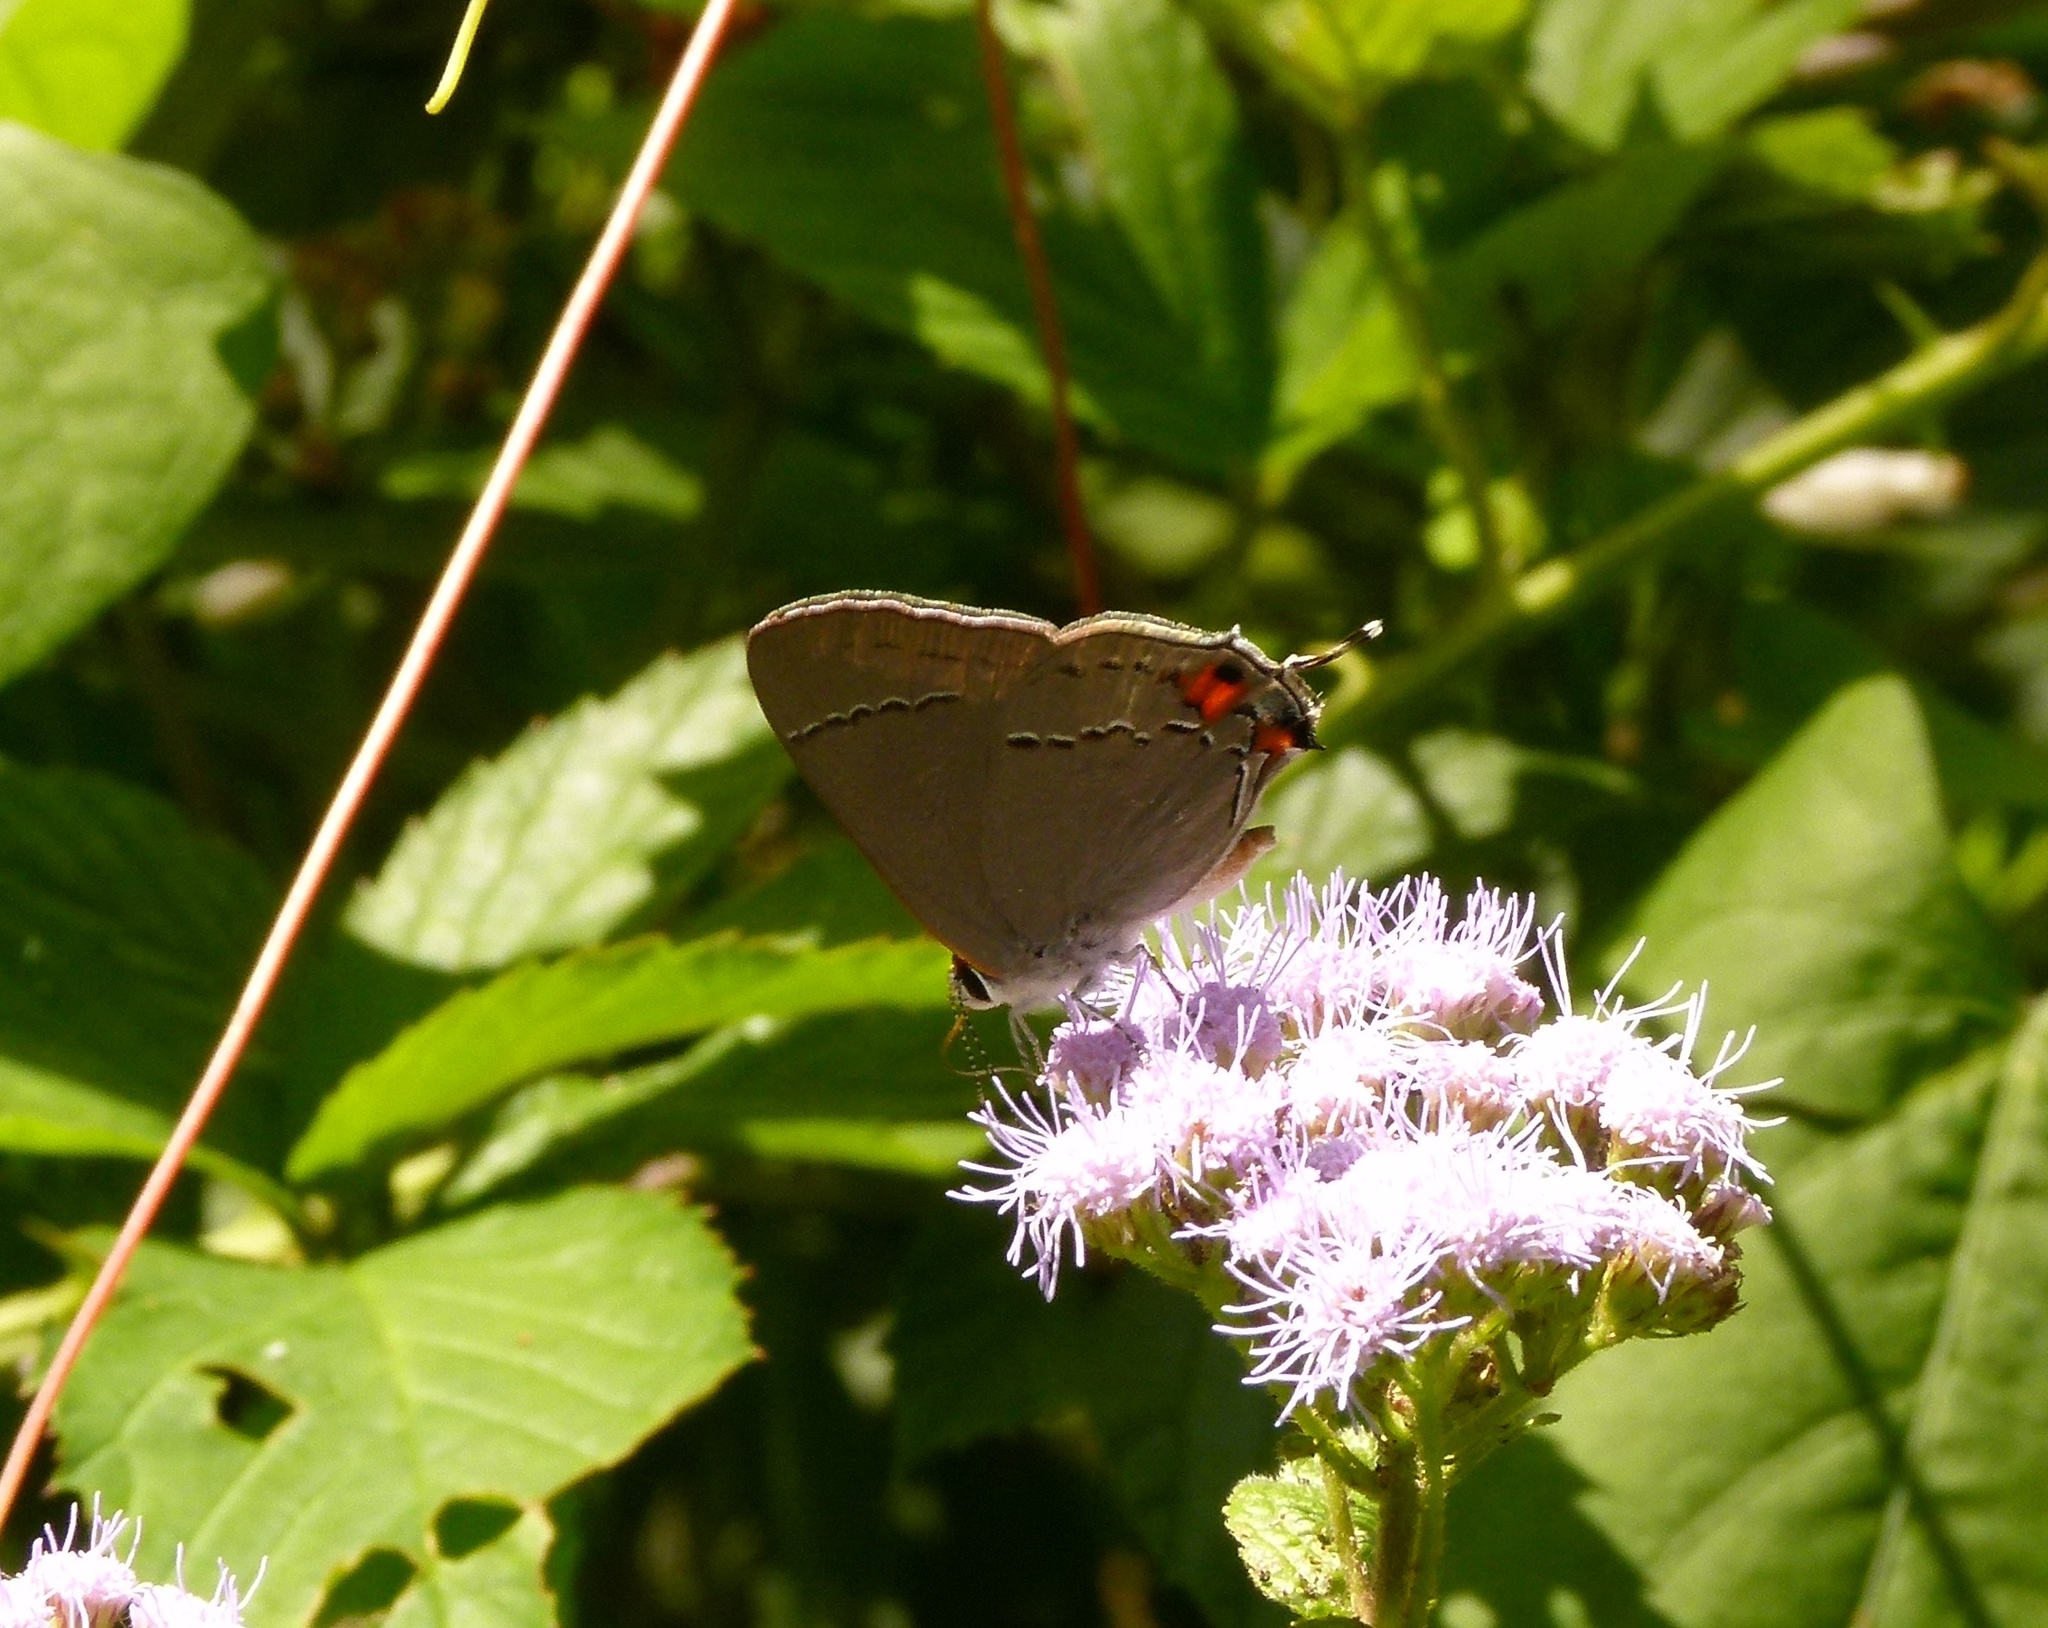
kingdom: Animalia
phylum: Arthropoda
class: Insecta
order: Lepidoptera
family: Lycaenidae
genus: Strymon
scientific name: Strymon melinus
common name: Gray hairstreak
